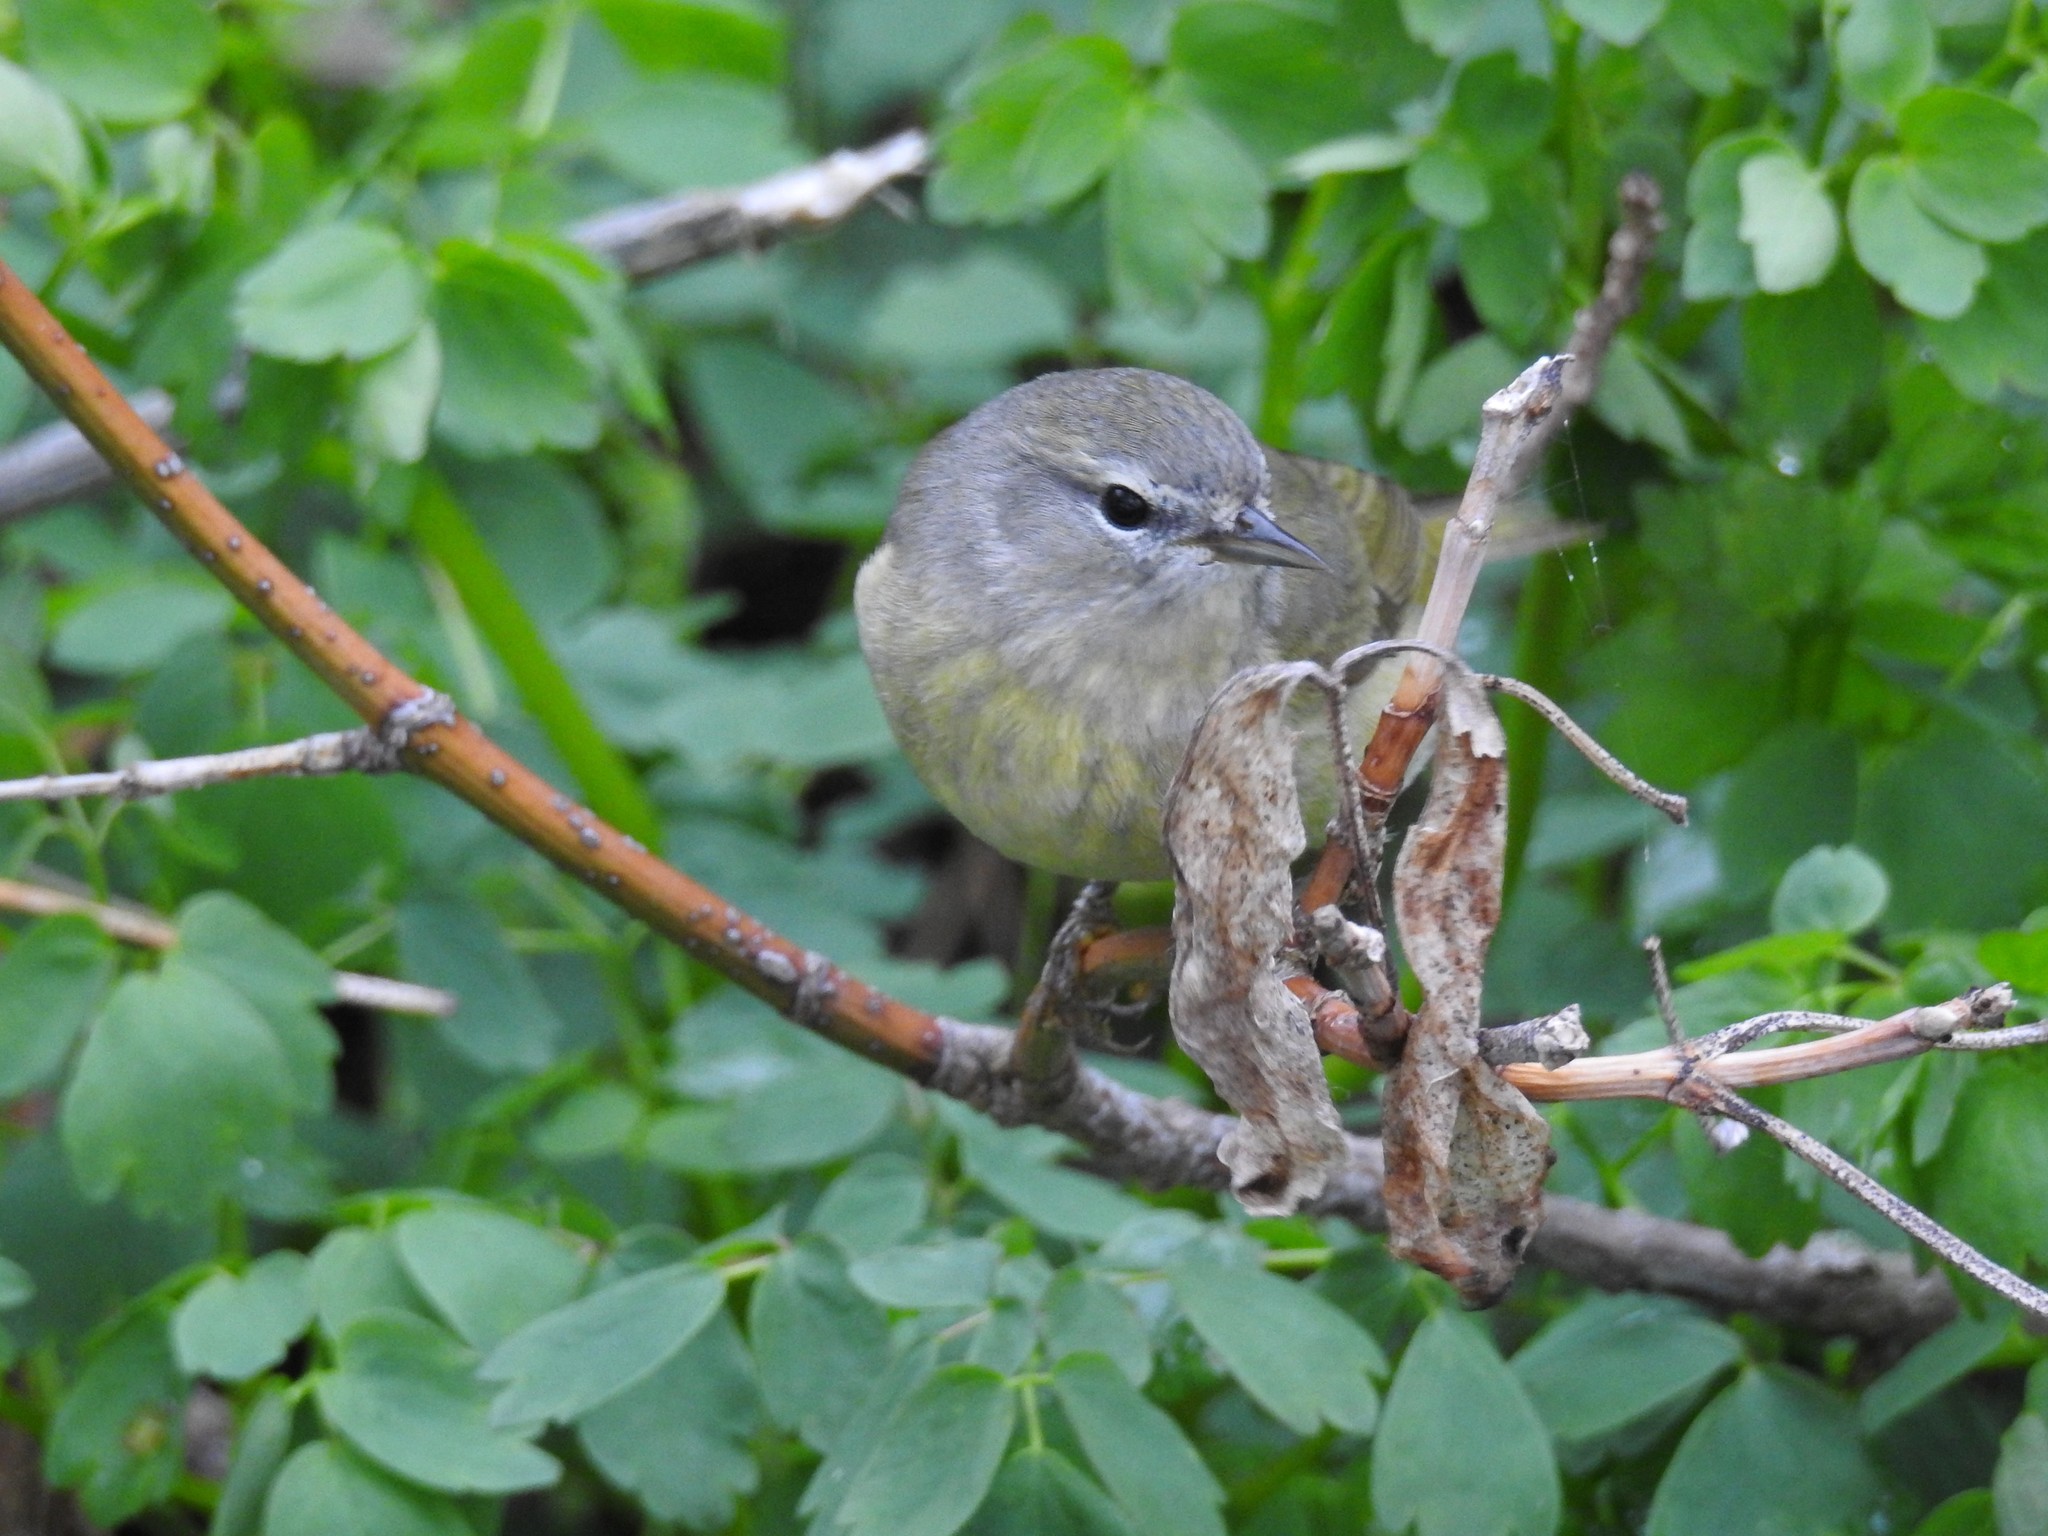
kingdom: Animalia
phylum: Chordata
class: Aves
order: Passeriformes
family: Parulidae
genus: Leiothlypis
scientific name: Leiothlypis celata
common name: Orange-crowned warbler
